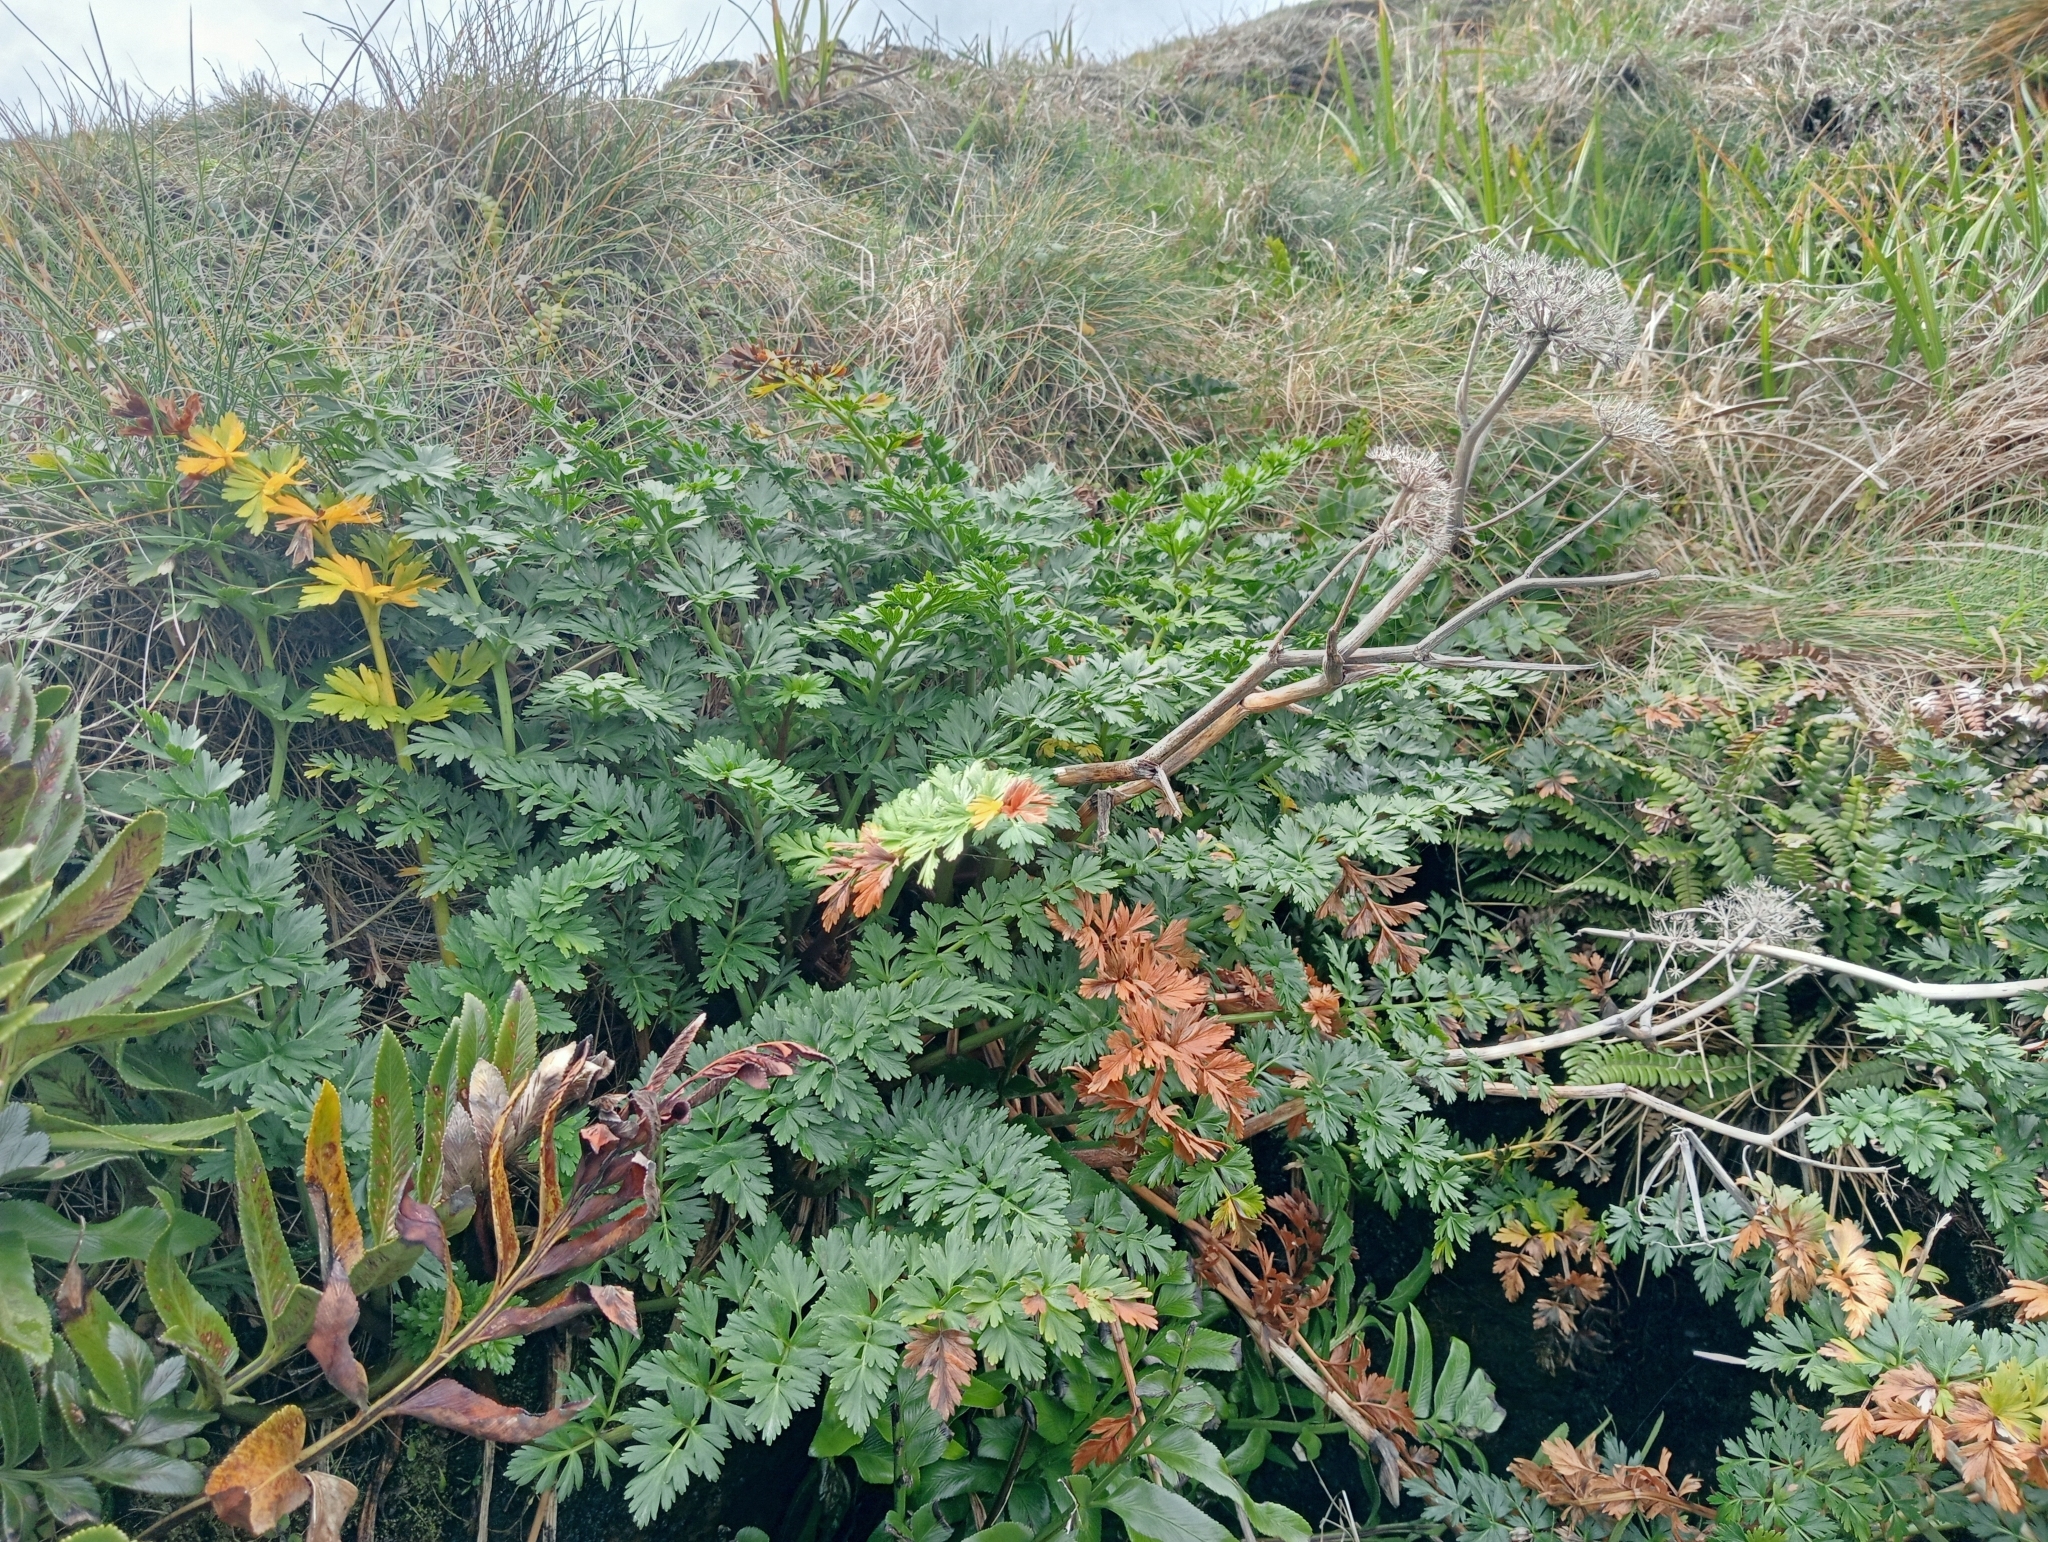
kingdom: Plantae
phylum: Tracheophyta
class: Magnoliopsida
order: Apiales
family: Apiaceae
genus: Anisotome
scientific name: Anisotome lyallii
